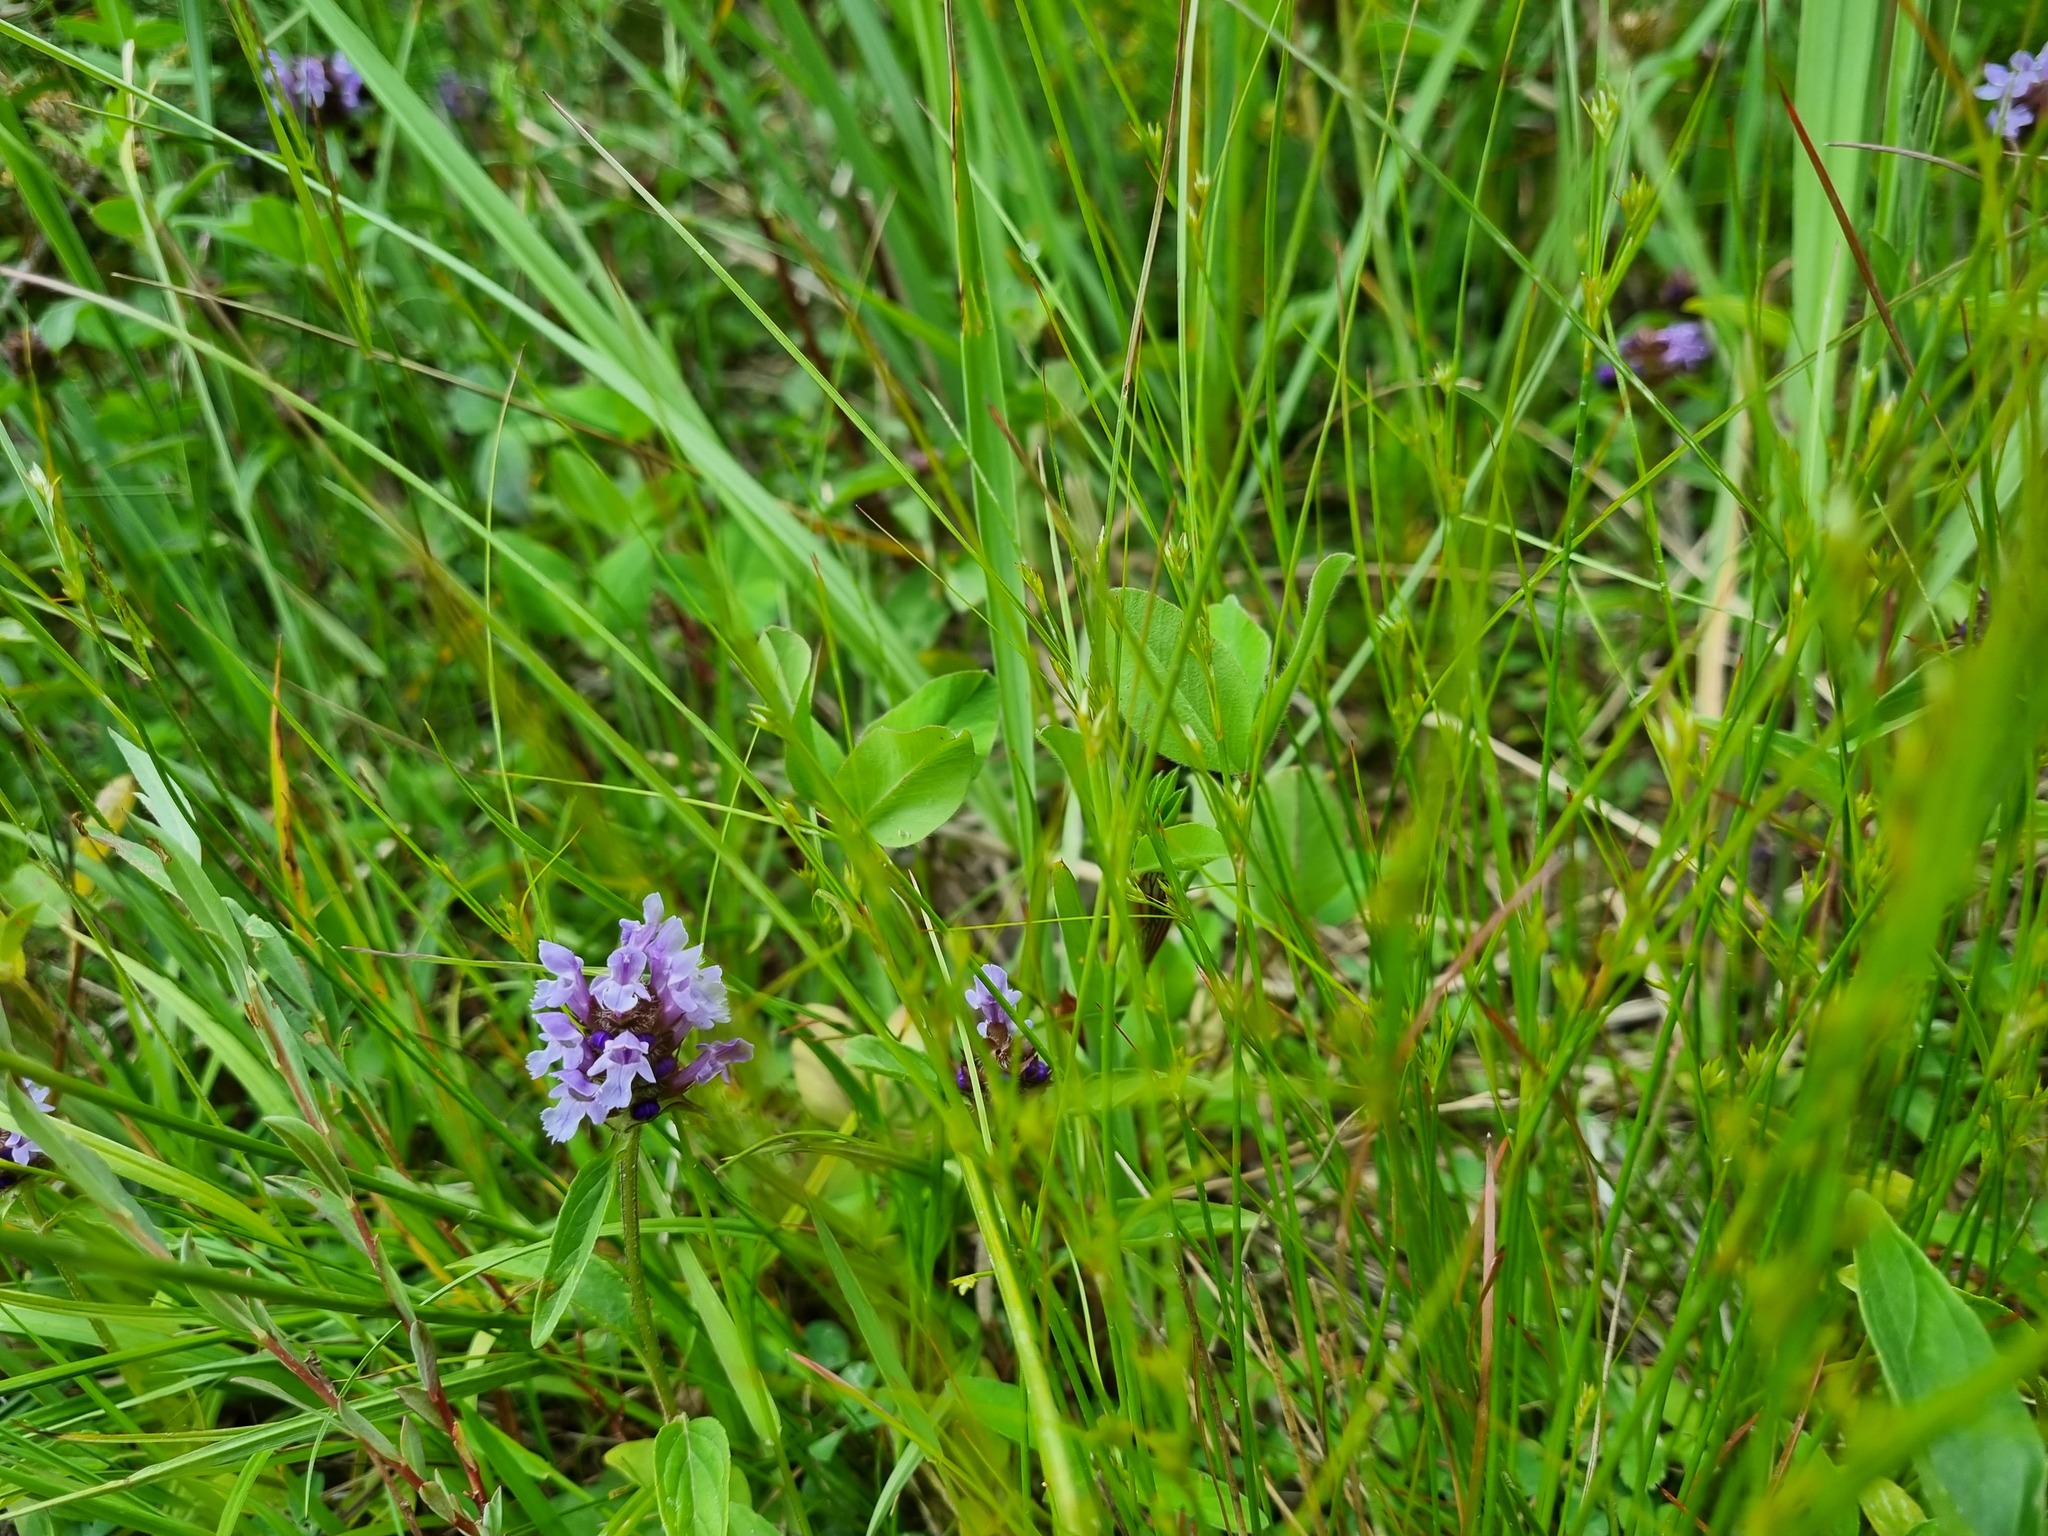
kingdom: Plantae
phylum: Tracheophyta
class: Magnoliopsida
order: Lamiales
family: Lamiaceae
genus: Prunella
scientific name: Prunella vulgaris
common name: Heal-all
